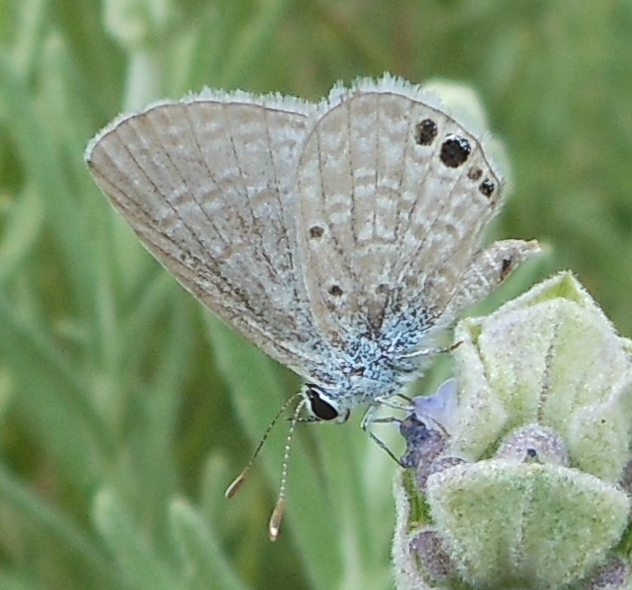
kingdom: Animalia
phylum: Arthropoda
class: Insecta
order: Lepidoptera
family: Lycaenidae
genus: Hemiargus
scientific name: Hemiargus ceraunus
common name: Ceraunus blue
